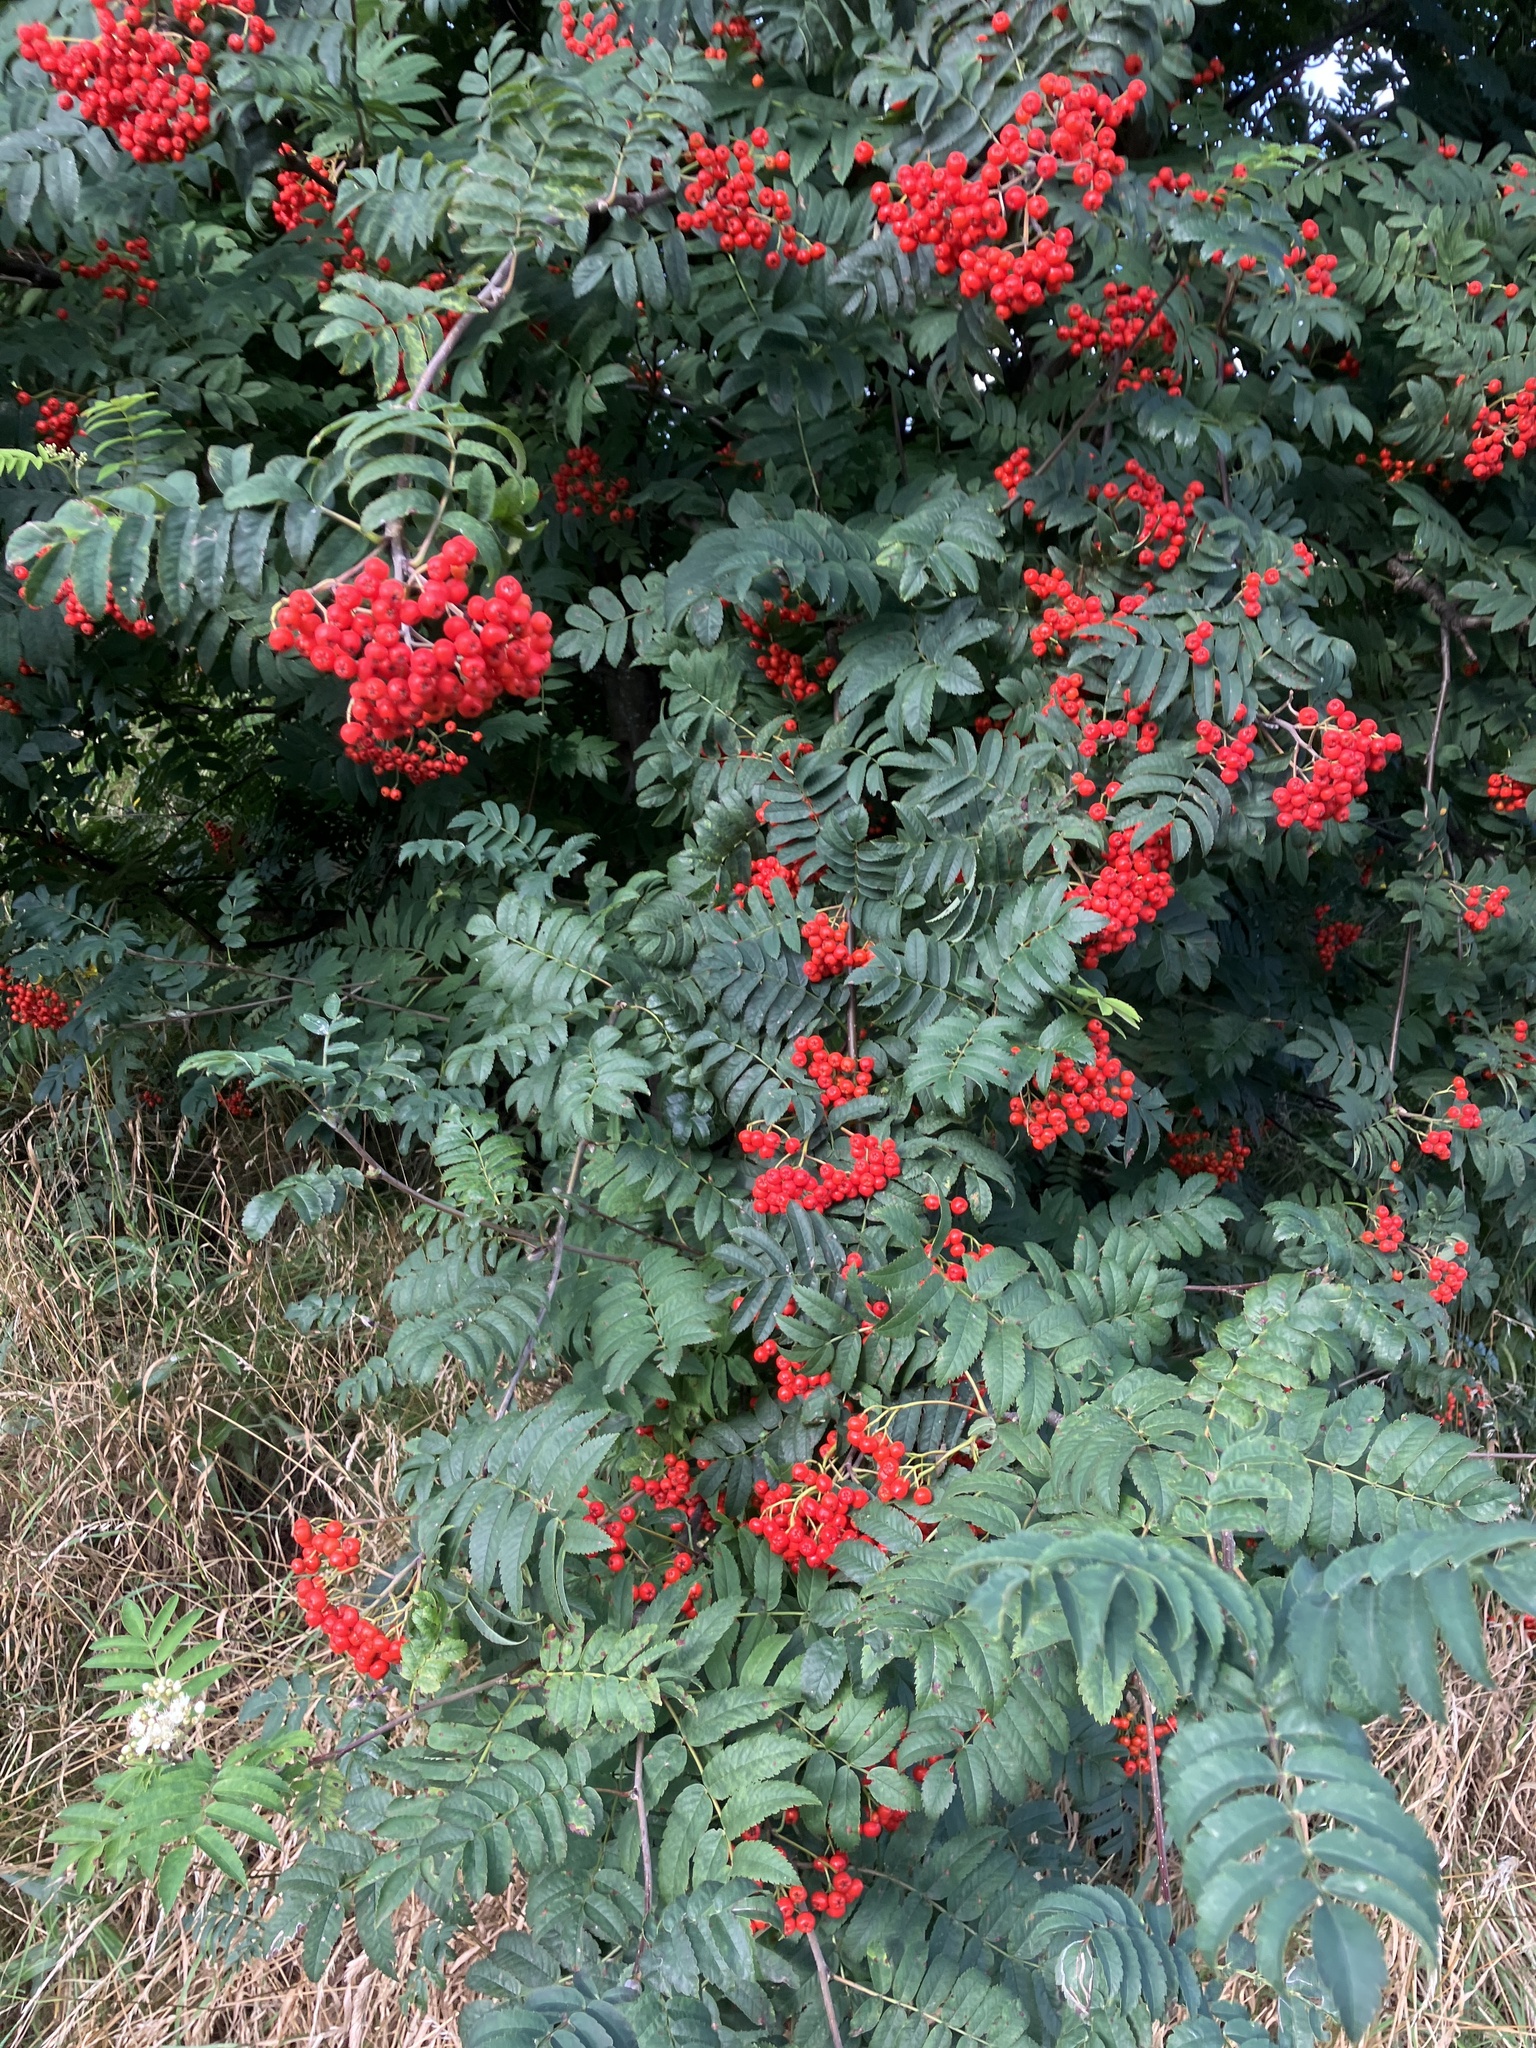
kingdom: Plantae
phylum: Tracheophyta
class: Magnoliopsida
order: Rosales
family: Rosaceae
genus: Sorbus
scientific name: Sorbus aucuparia
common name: Rowan
